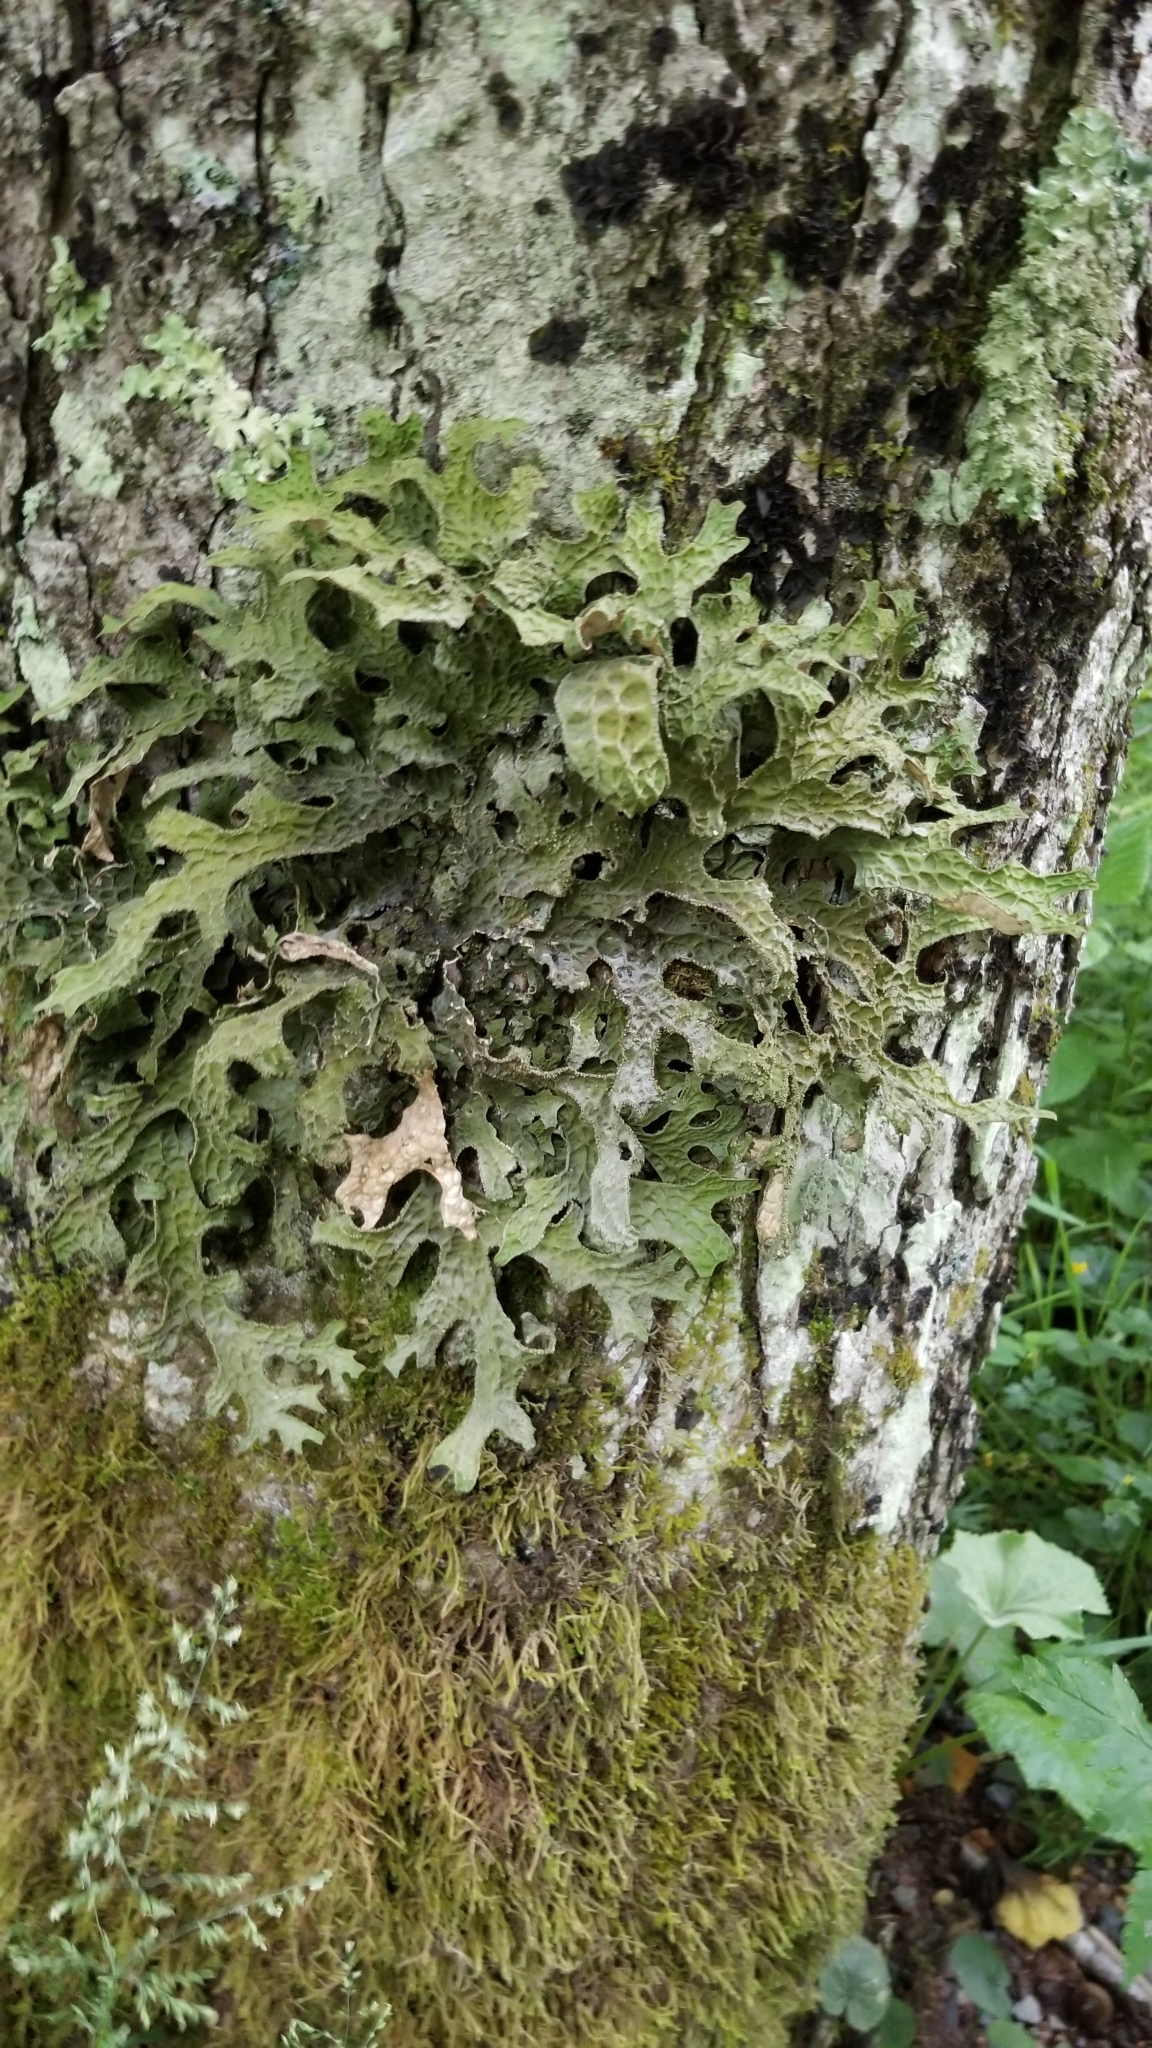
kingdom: Fungi
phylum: Ascomycota
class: Lecanoromycetes
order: Peltigerales
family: Lobariaceae
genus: Lobaria
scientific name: Lobaria pulmonaria
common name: Lungwort
